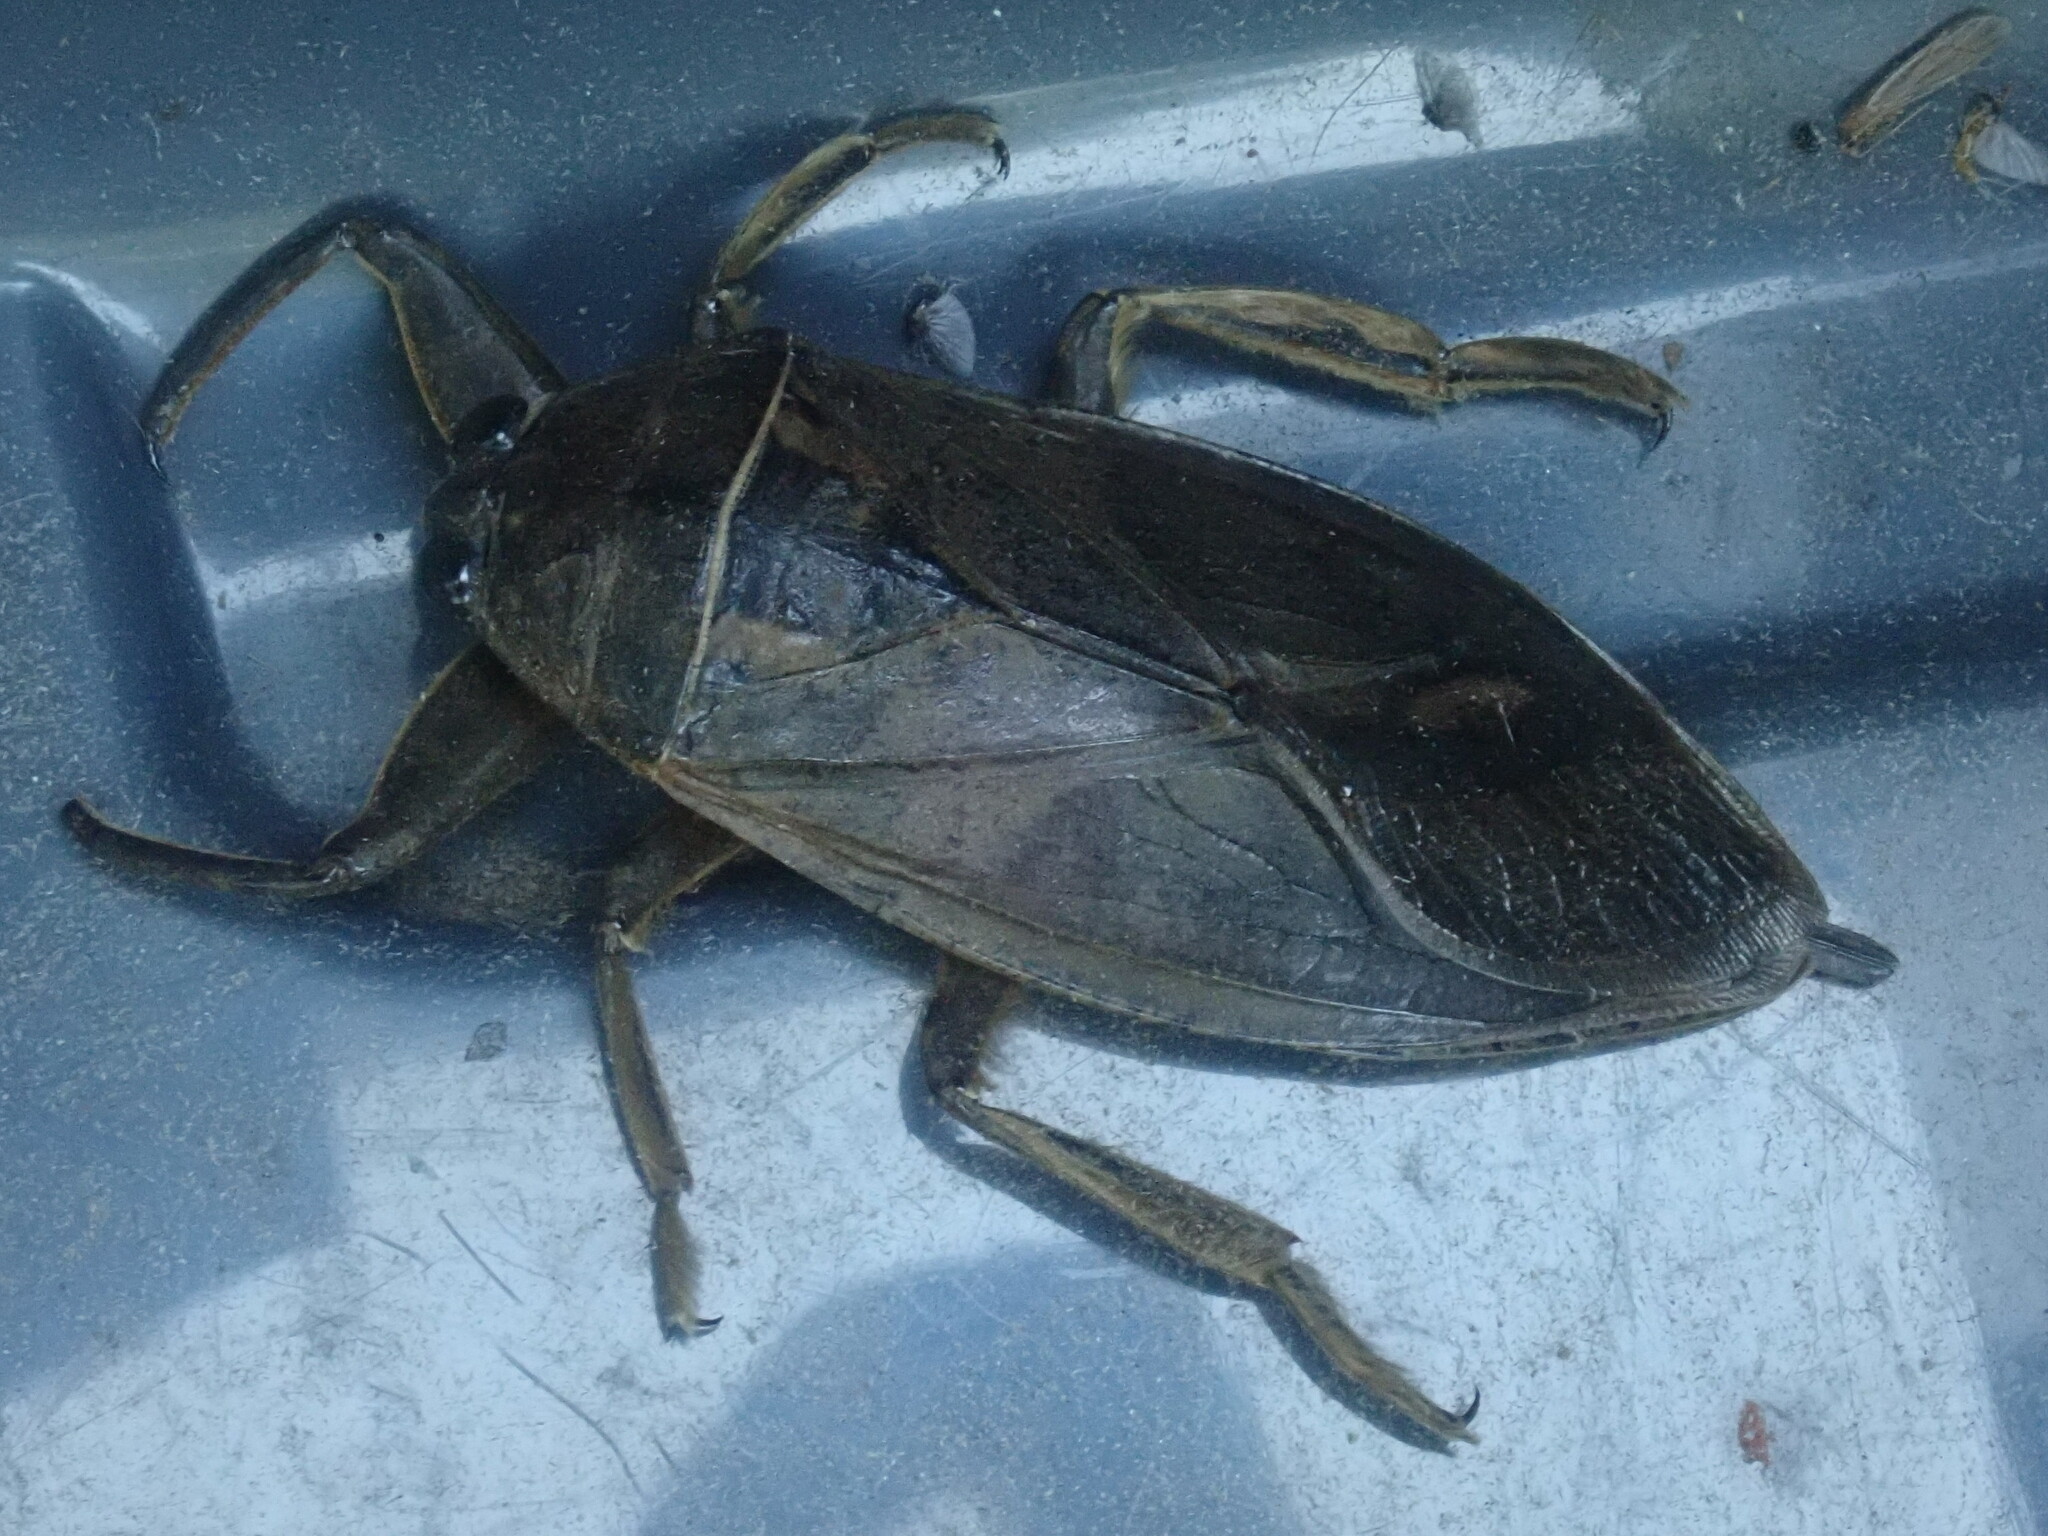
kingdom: Animalia
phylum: Arthropoda
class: Insecta
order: Hemiptera
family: Belostomatidae
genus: Lethocerus
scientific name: Lethocerus americanus
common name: Giant water bug
